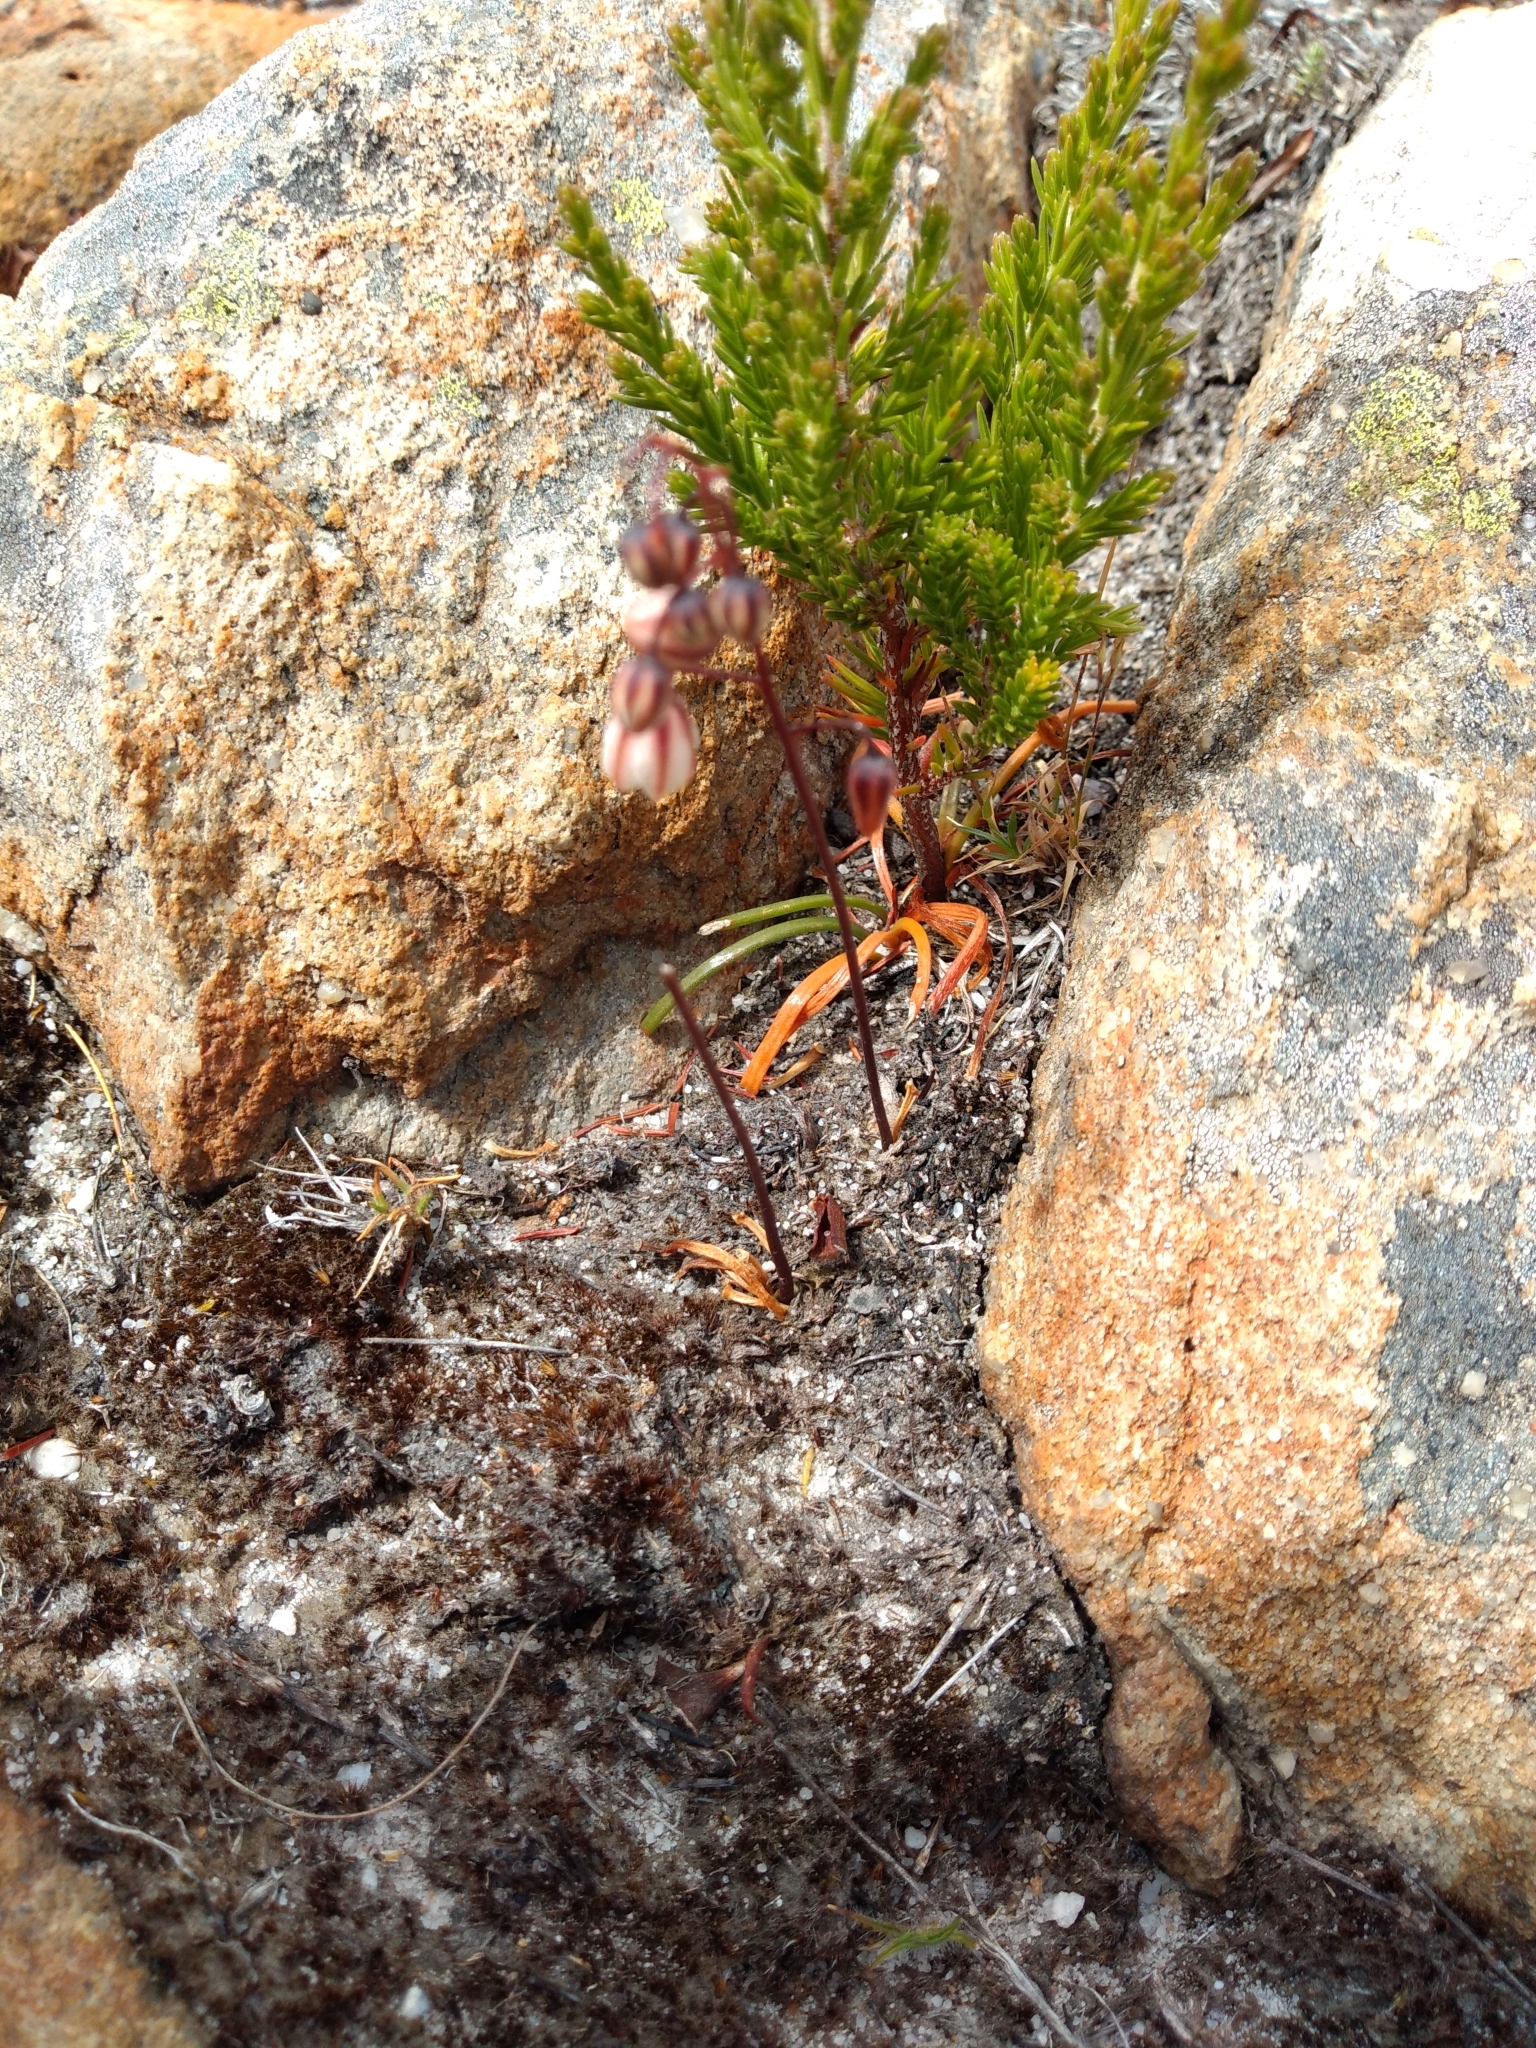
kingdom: Plantae
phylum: Tracheophyta
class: Liliopsida
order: Asparagales
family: Asparagaceae
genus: Drimia
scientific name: Drimia convallarioides
